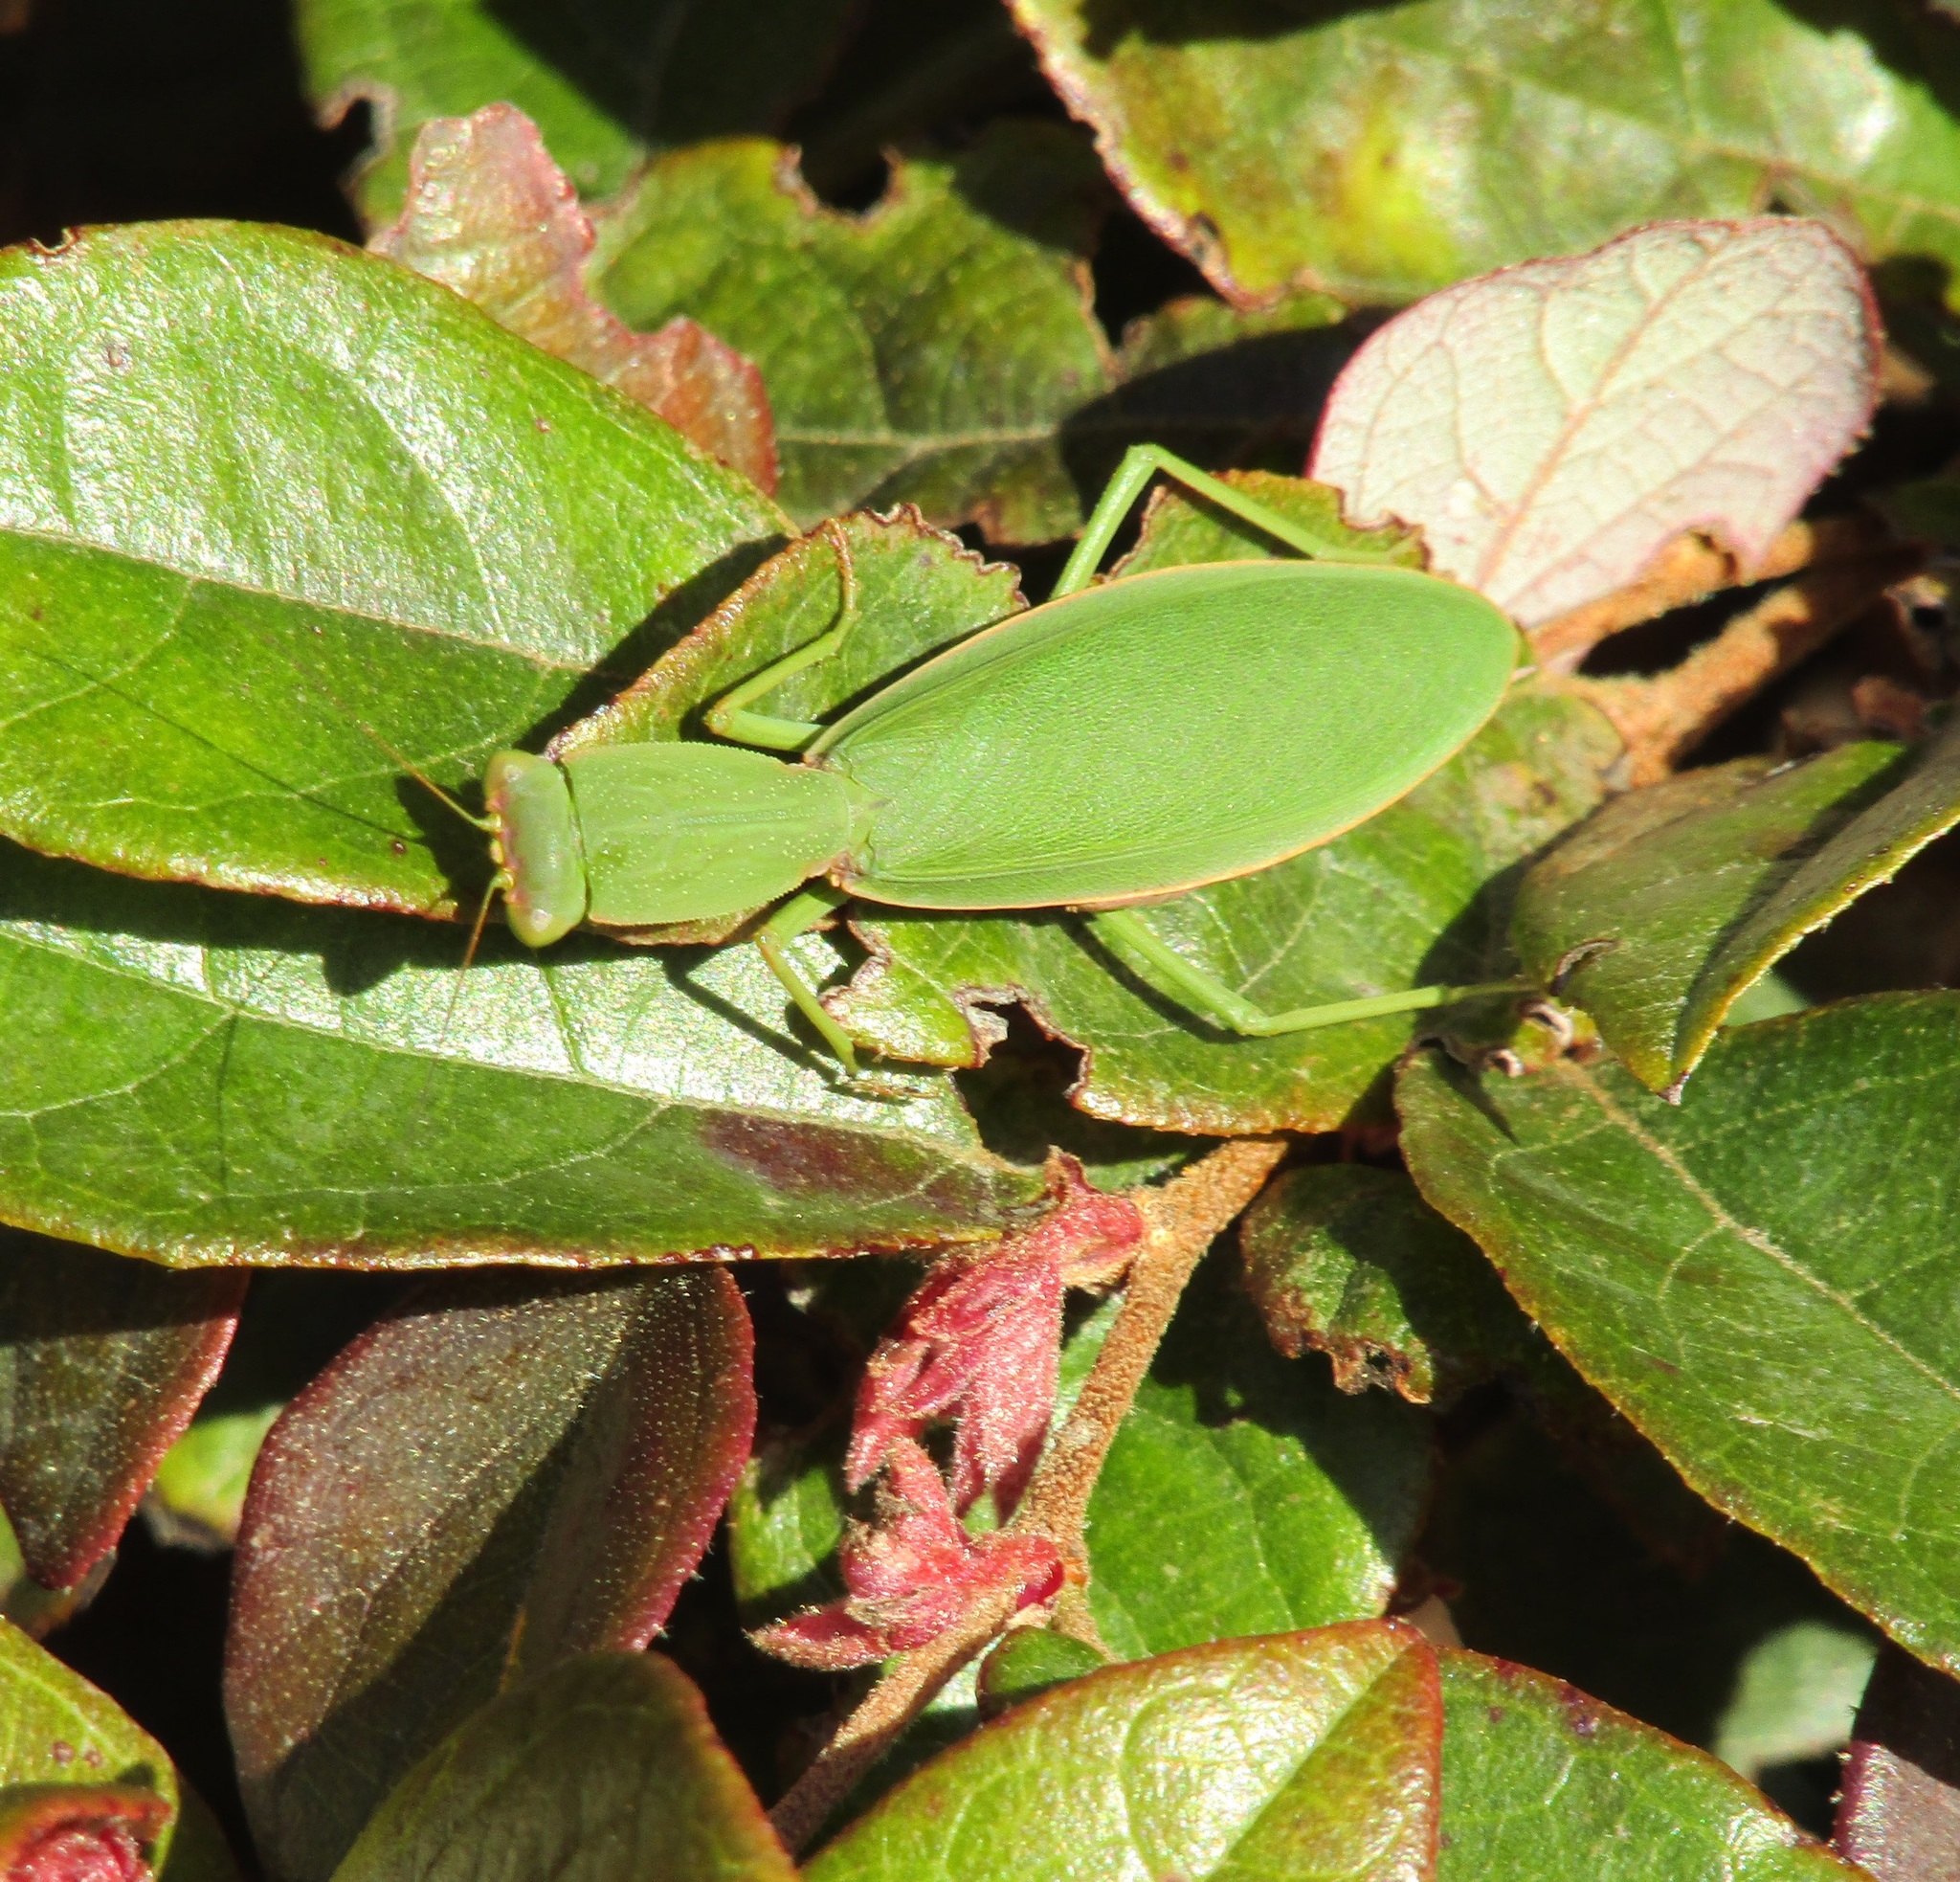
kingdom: Animalia
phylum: Arthropoda
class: Insecta
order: Mantodea
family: Mantidae
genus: Orthodera
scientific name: Orthodera novaezealandiae
